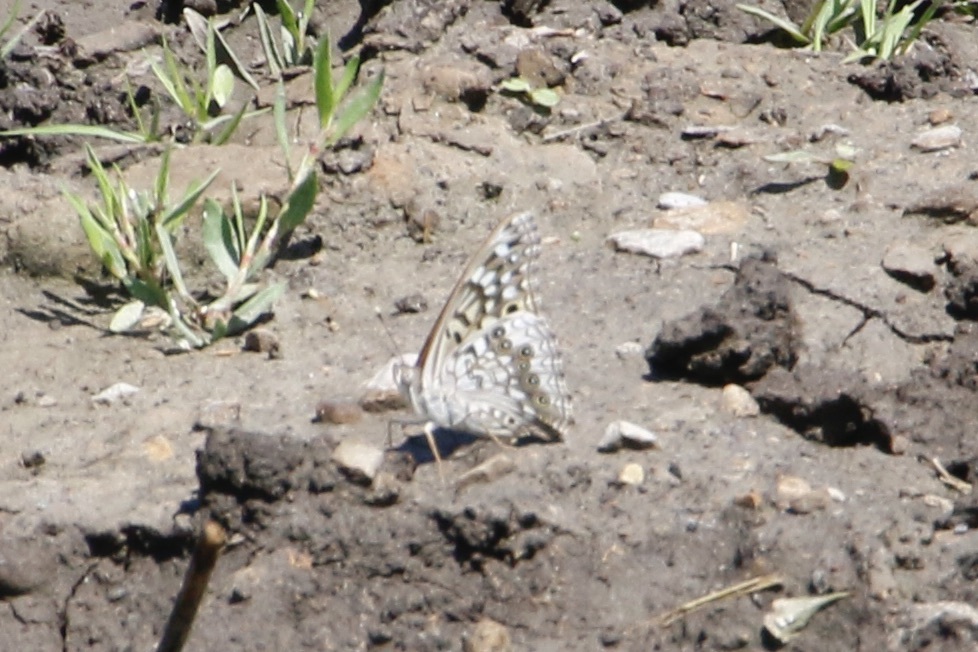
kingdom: Animalia
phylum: Arthropoda
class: Insecta
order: Lepidoptera
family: Nymphalidae
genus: Asterocampa
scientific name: Asterocampa celtis
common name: Hackberry emperor
